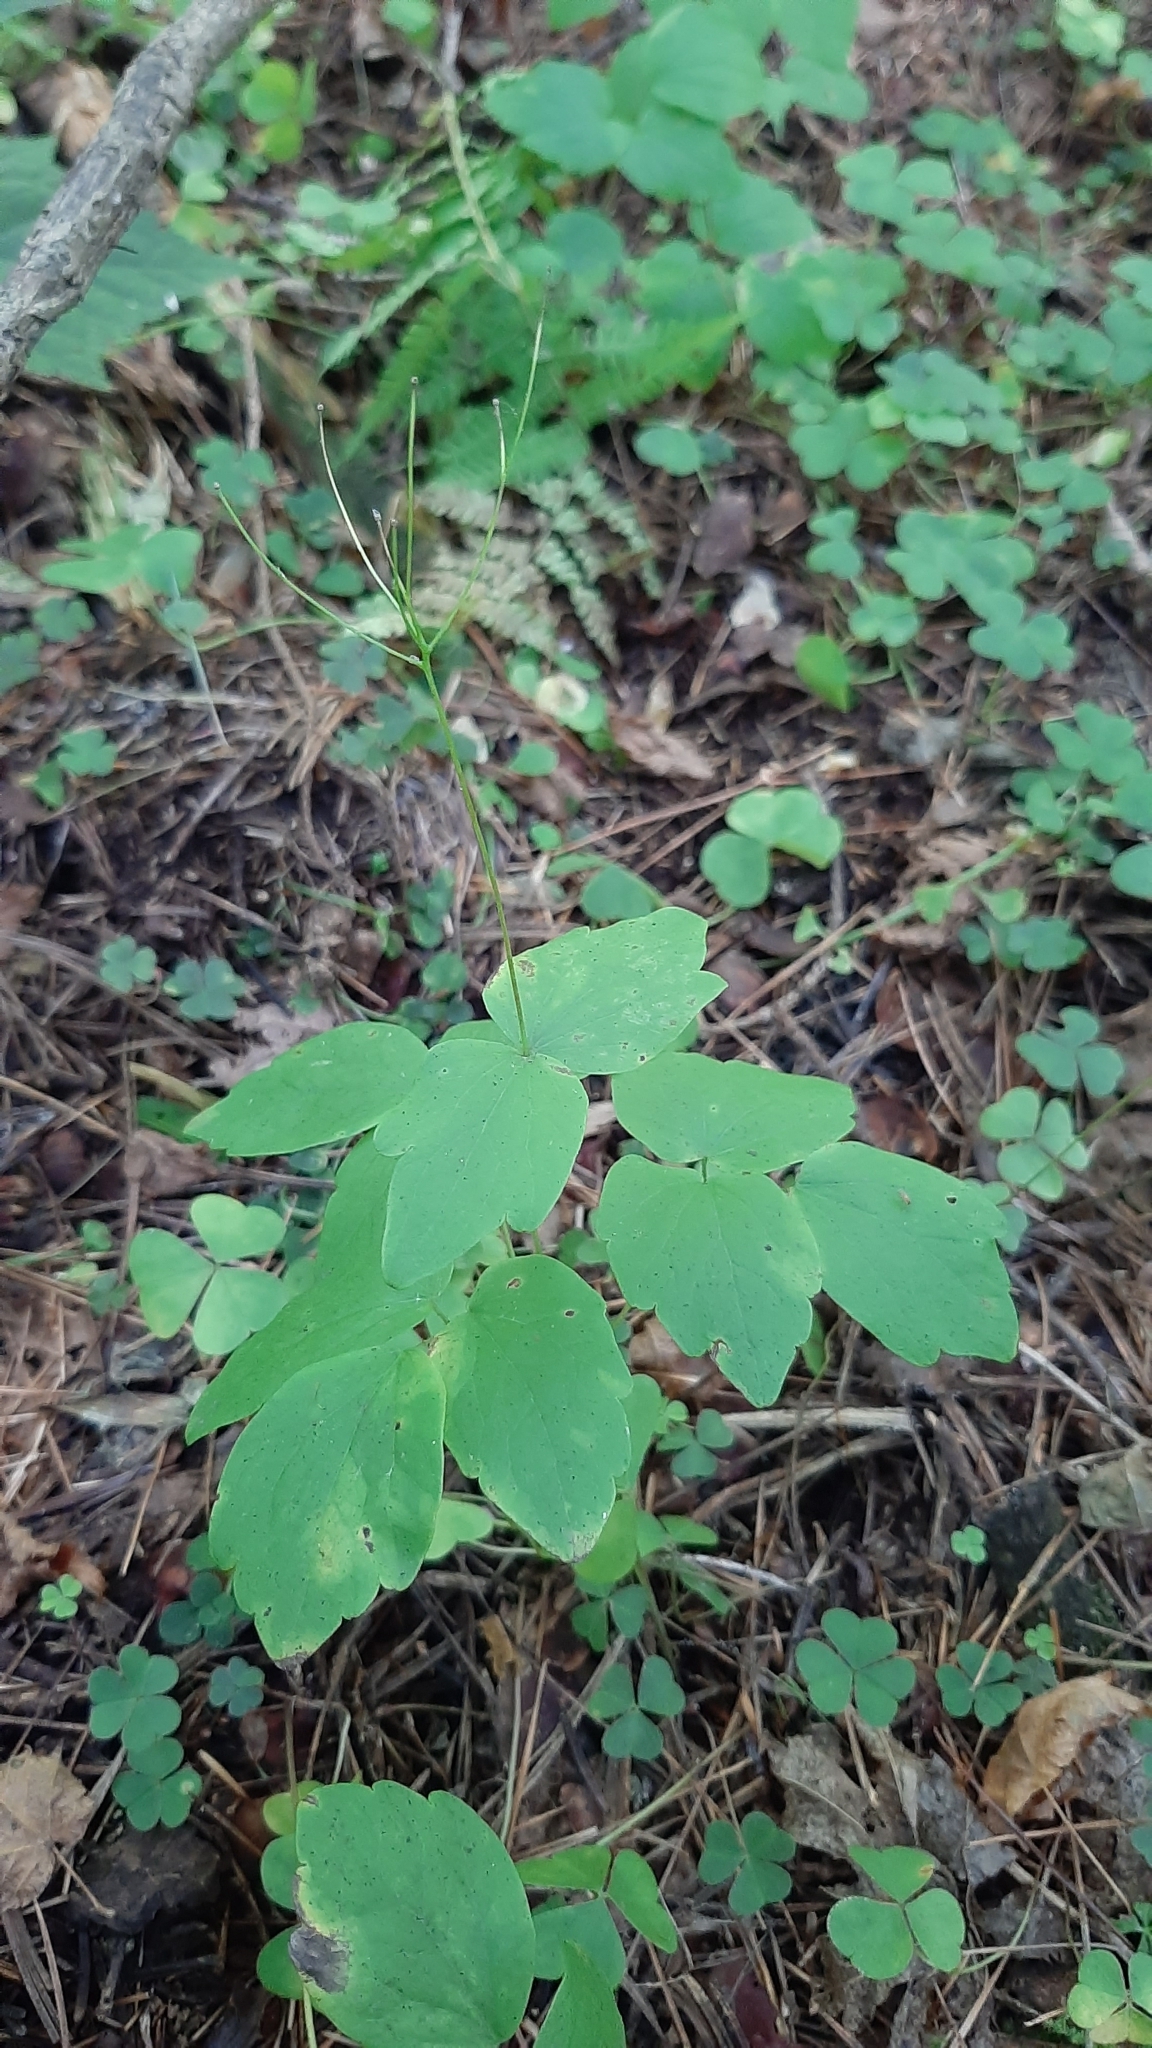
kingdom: Plantae
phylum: Tracheophyta
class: Magnoliopsida
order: Ranunculales
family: Ranunculaceae
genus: Thalictrum
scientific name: Thalictrum filamentosum
